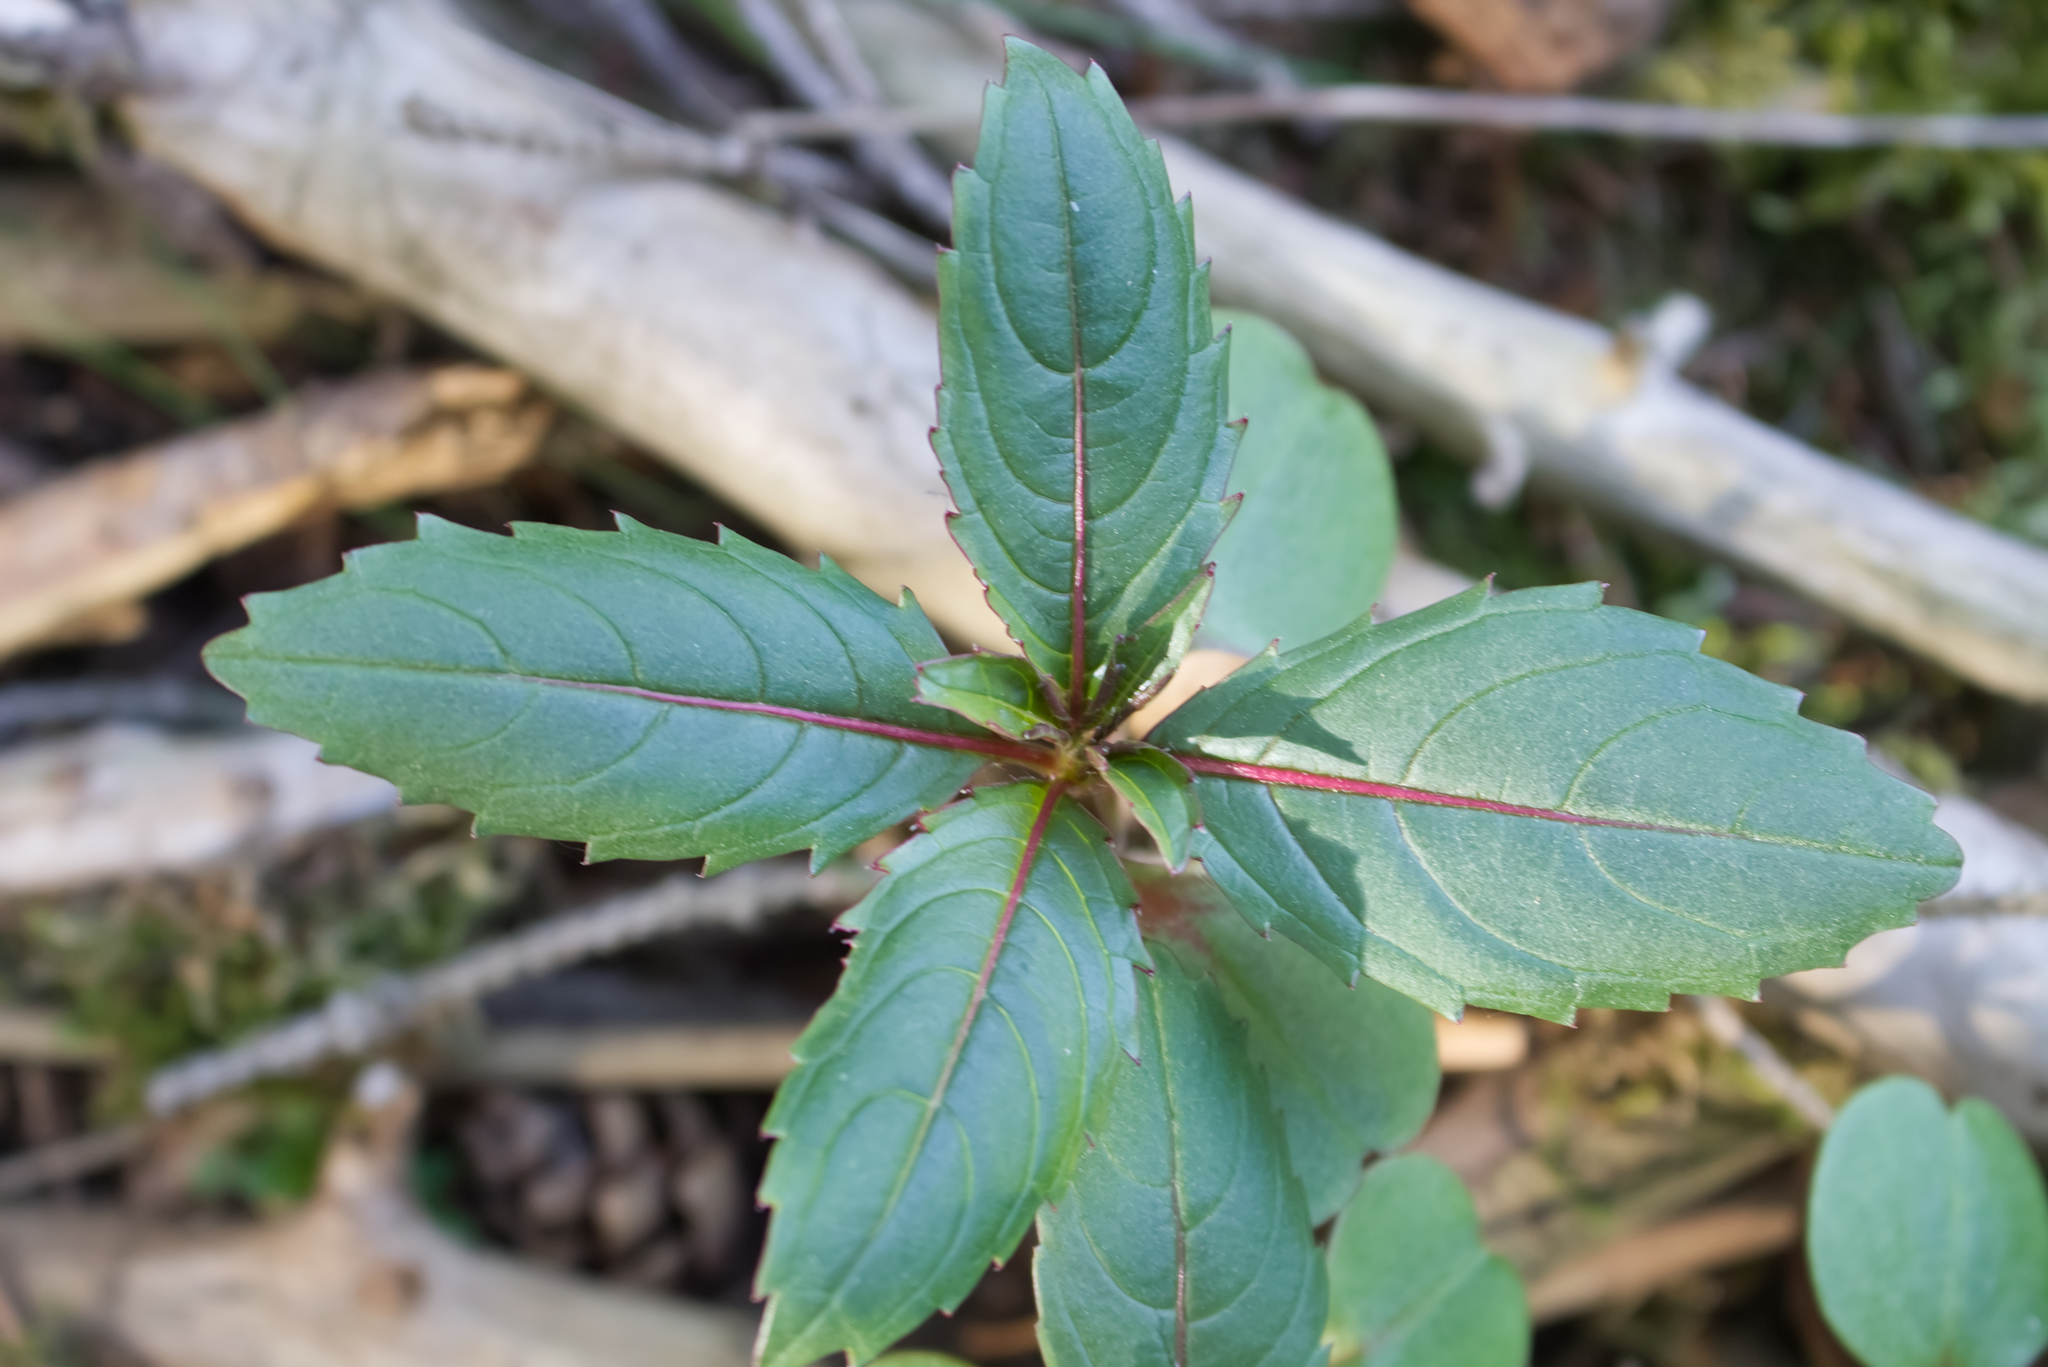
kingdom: Plantae
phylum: Tracheophyta
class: Magnoliopsida
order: Ericales
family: Balsaminaceae
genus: Impatiens
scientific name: Impatiens glandulifera
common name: Himalayan balsam
